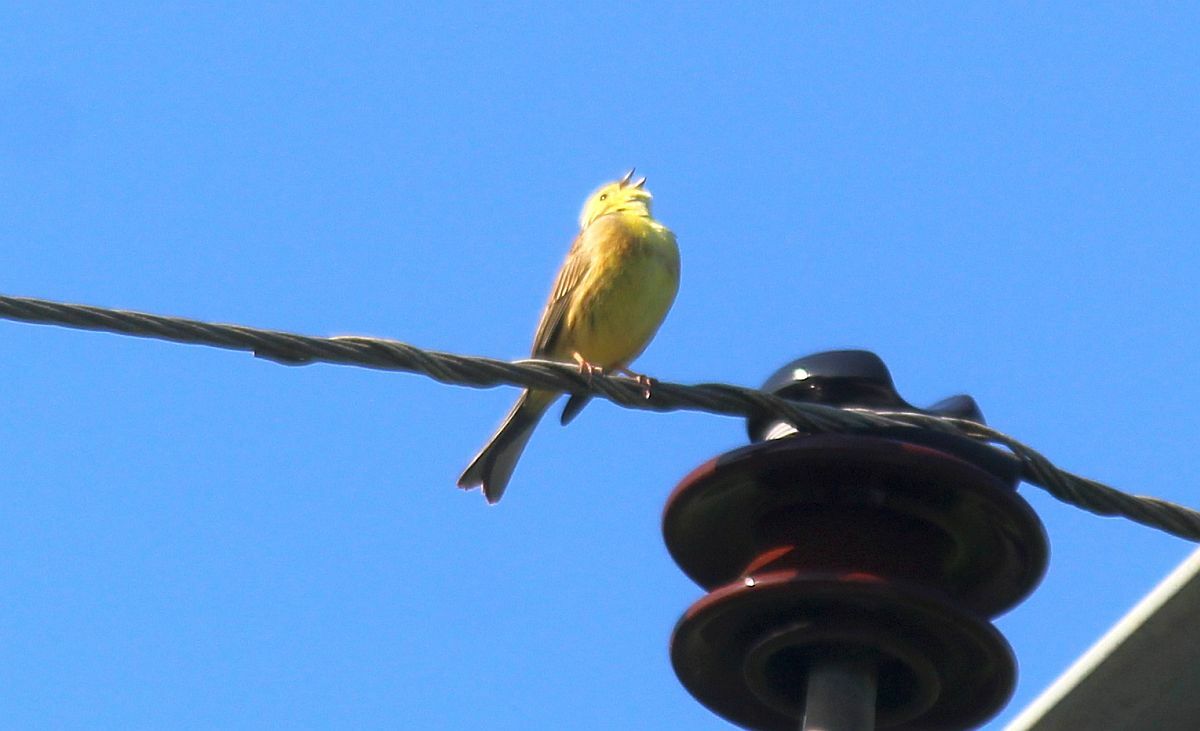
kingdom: Animalia
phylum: Chordata
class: Aves
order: Passeriformes
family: Emberizidae
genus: Emberiza
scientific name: Emberiza citrinella
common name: Yellowhammer
